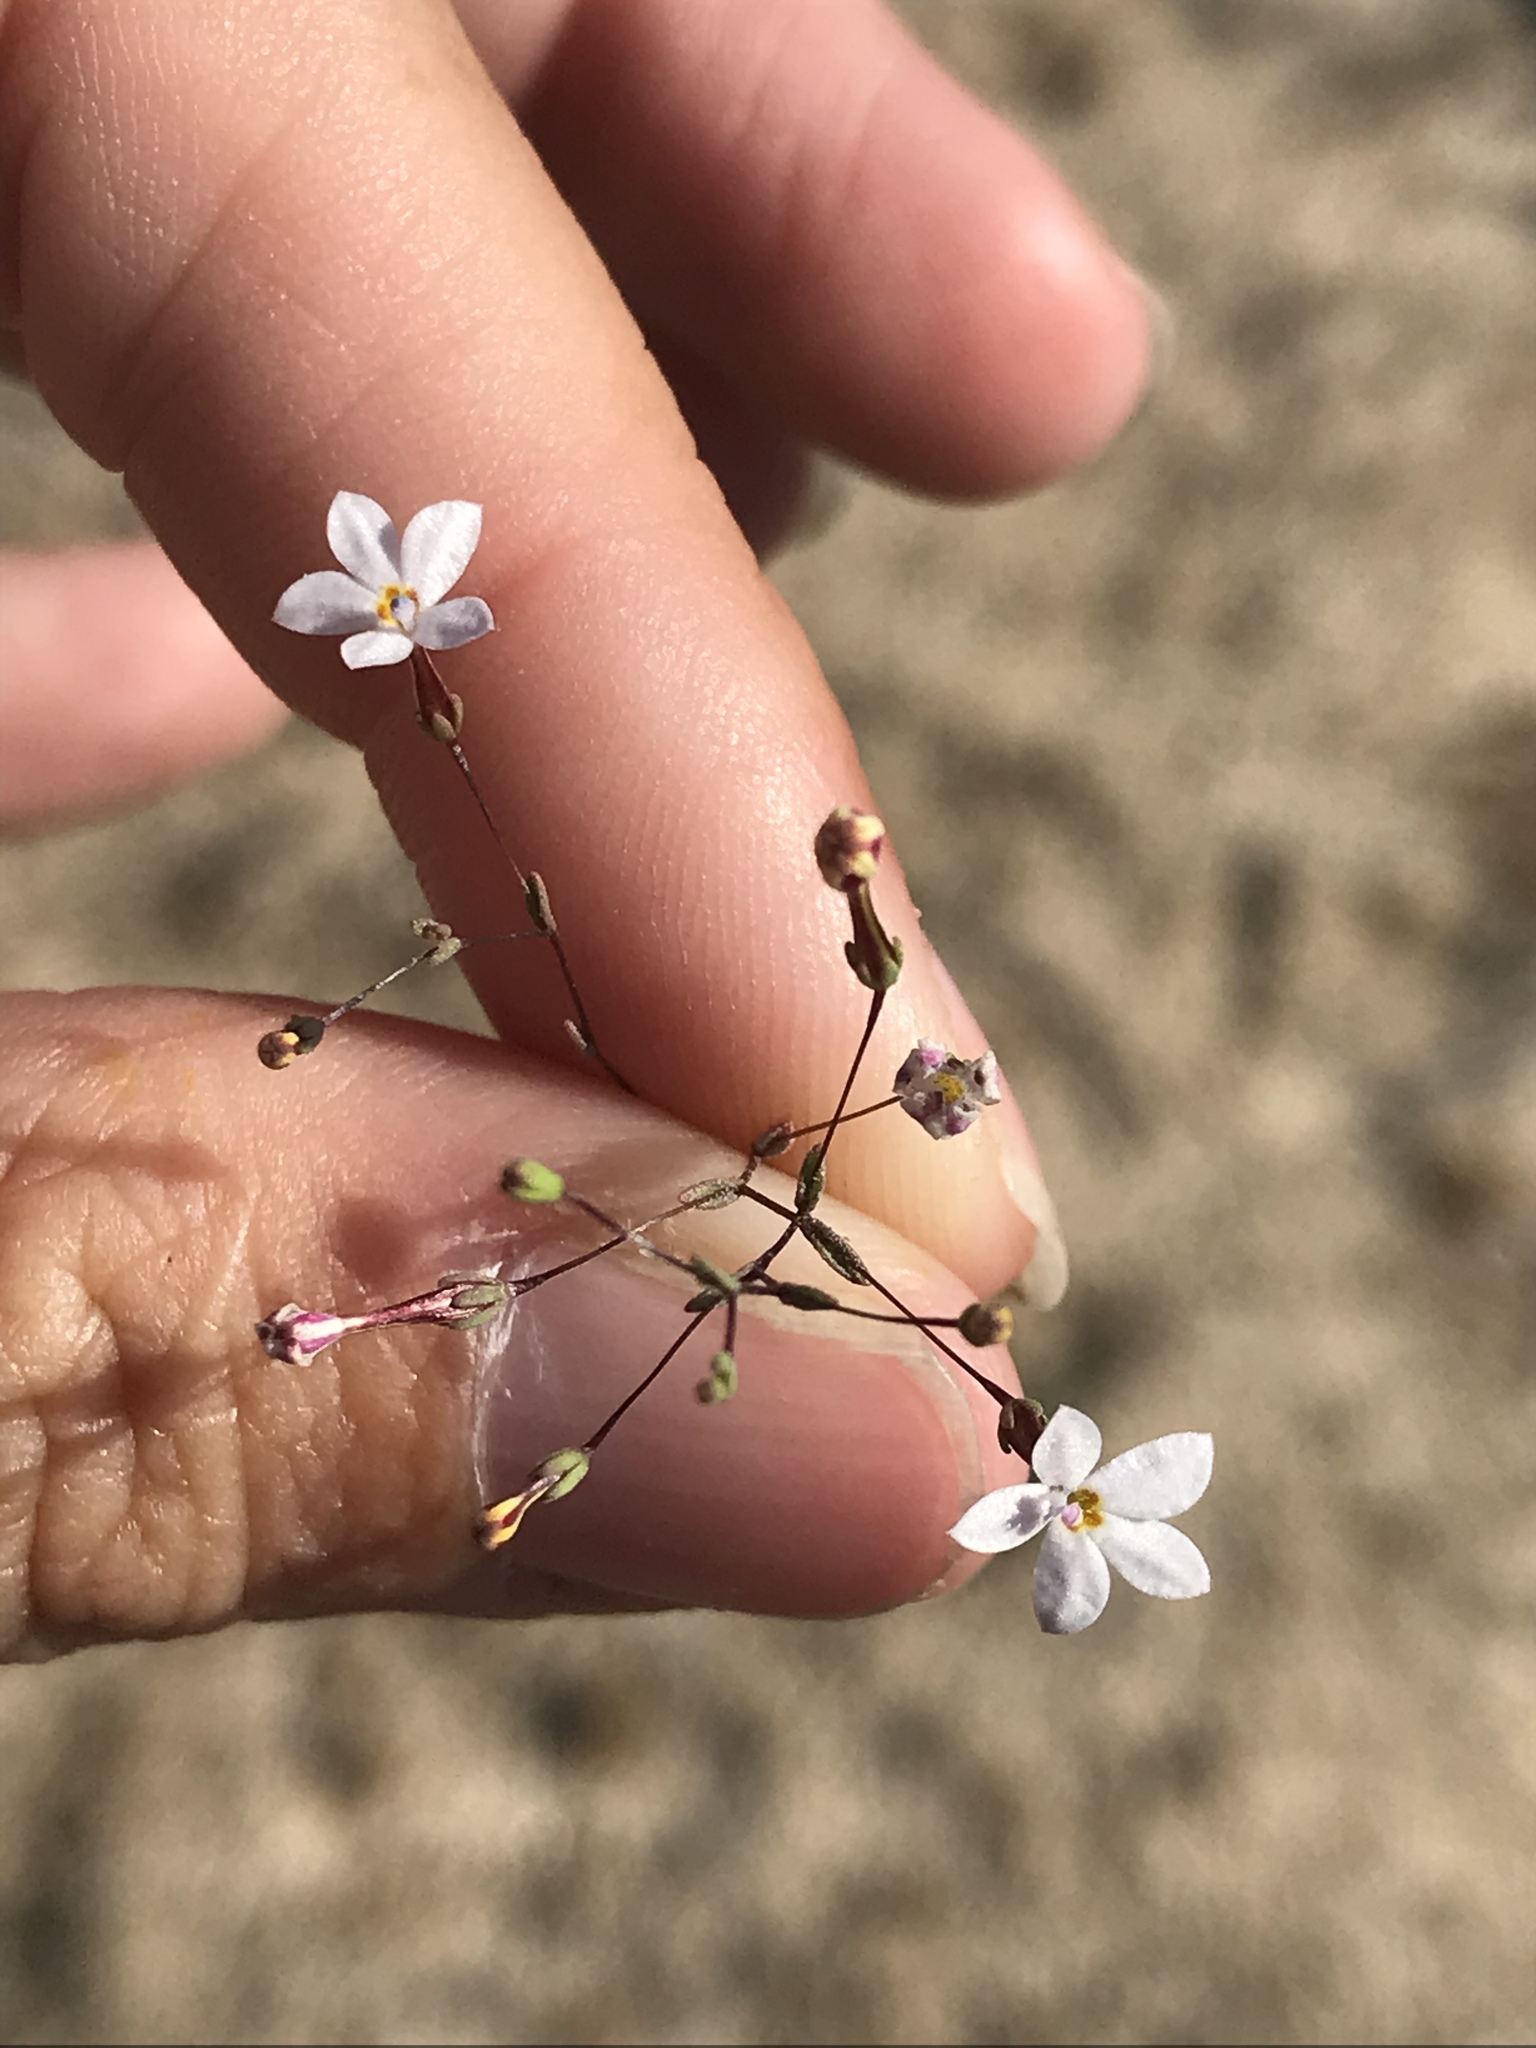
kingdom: Plantae
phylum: Tracheophyta
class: Magnoliopsida
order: Asterales
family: Campanulaceae
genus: Nemacladus
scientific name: Nemacladus longiflorus
